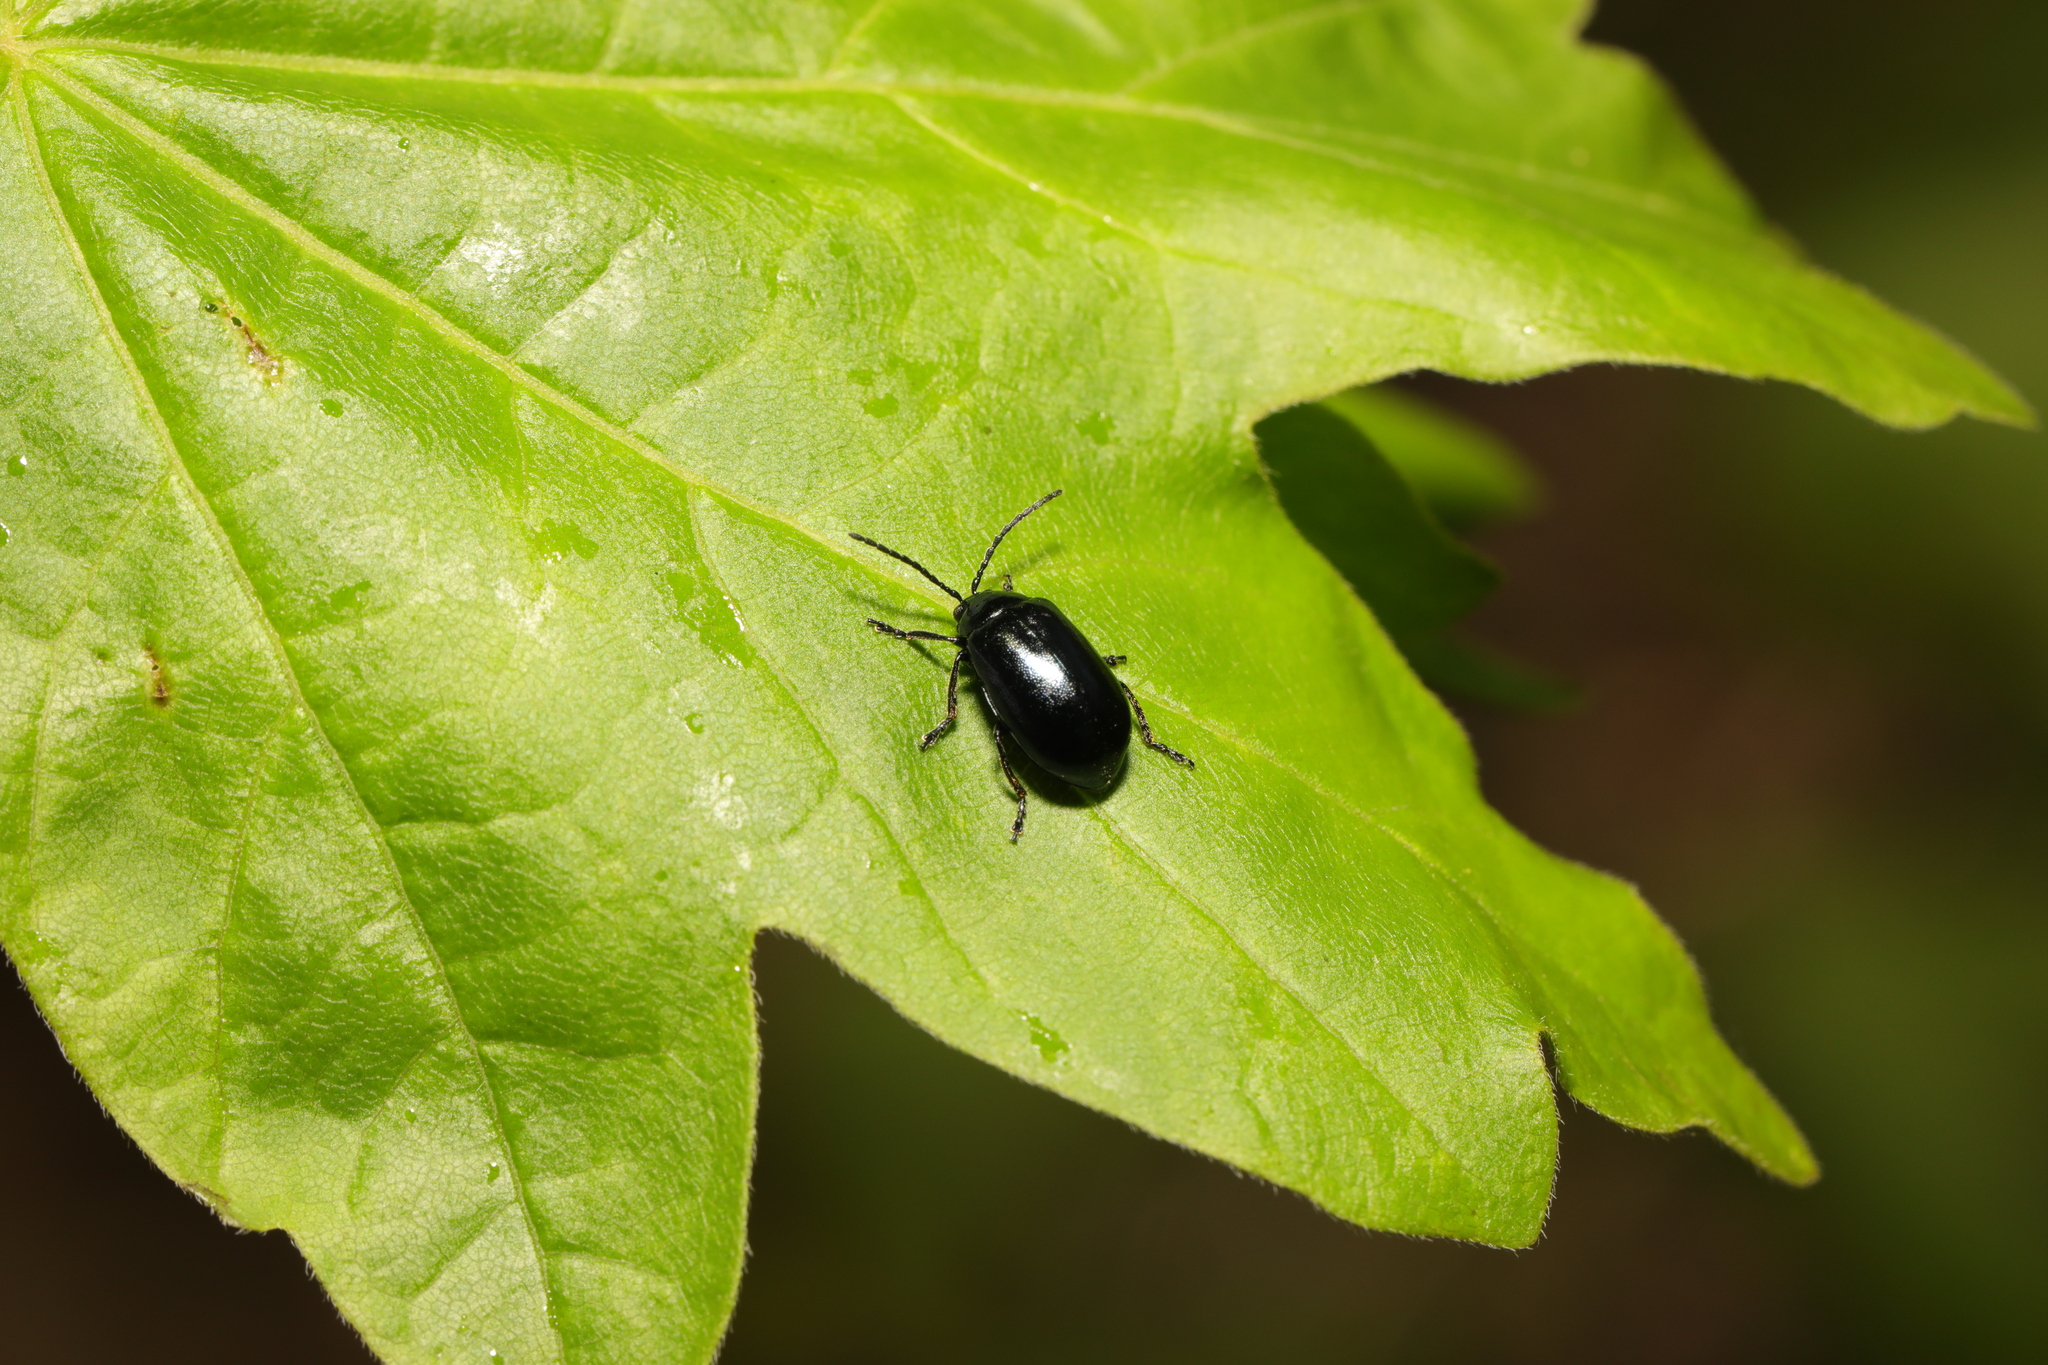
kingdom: Animalia
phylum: Arthropoda
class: Insecta
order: Coleoptera
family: Chrysomelidae
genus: Agelastica
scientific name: Agelastica alni
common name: Alder leaf beetle
